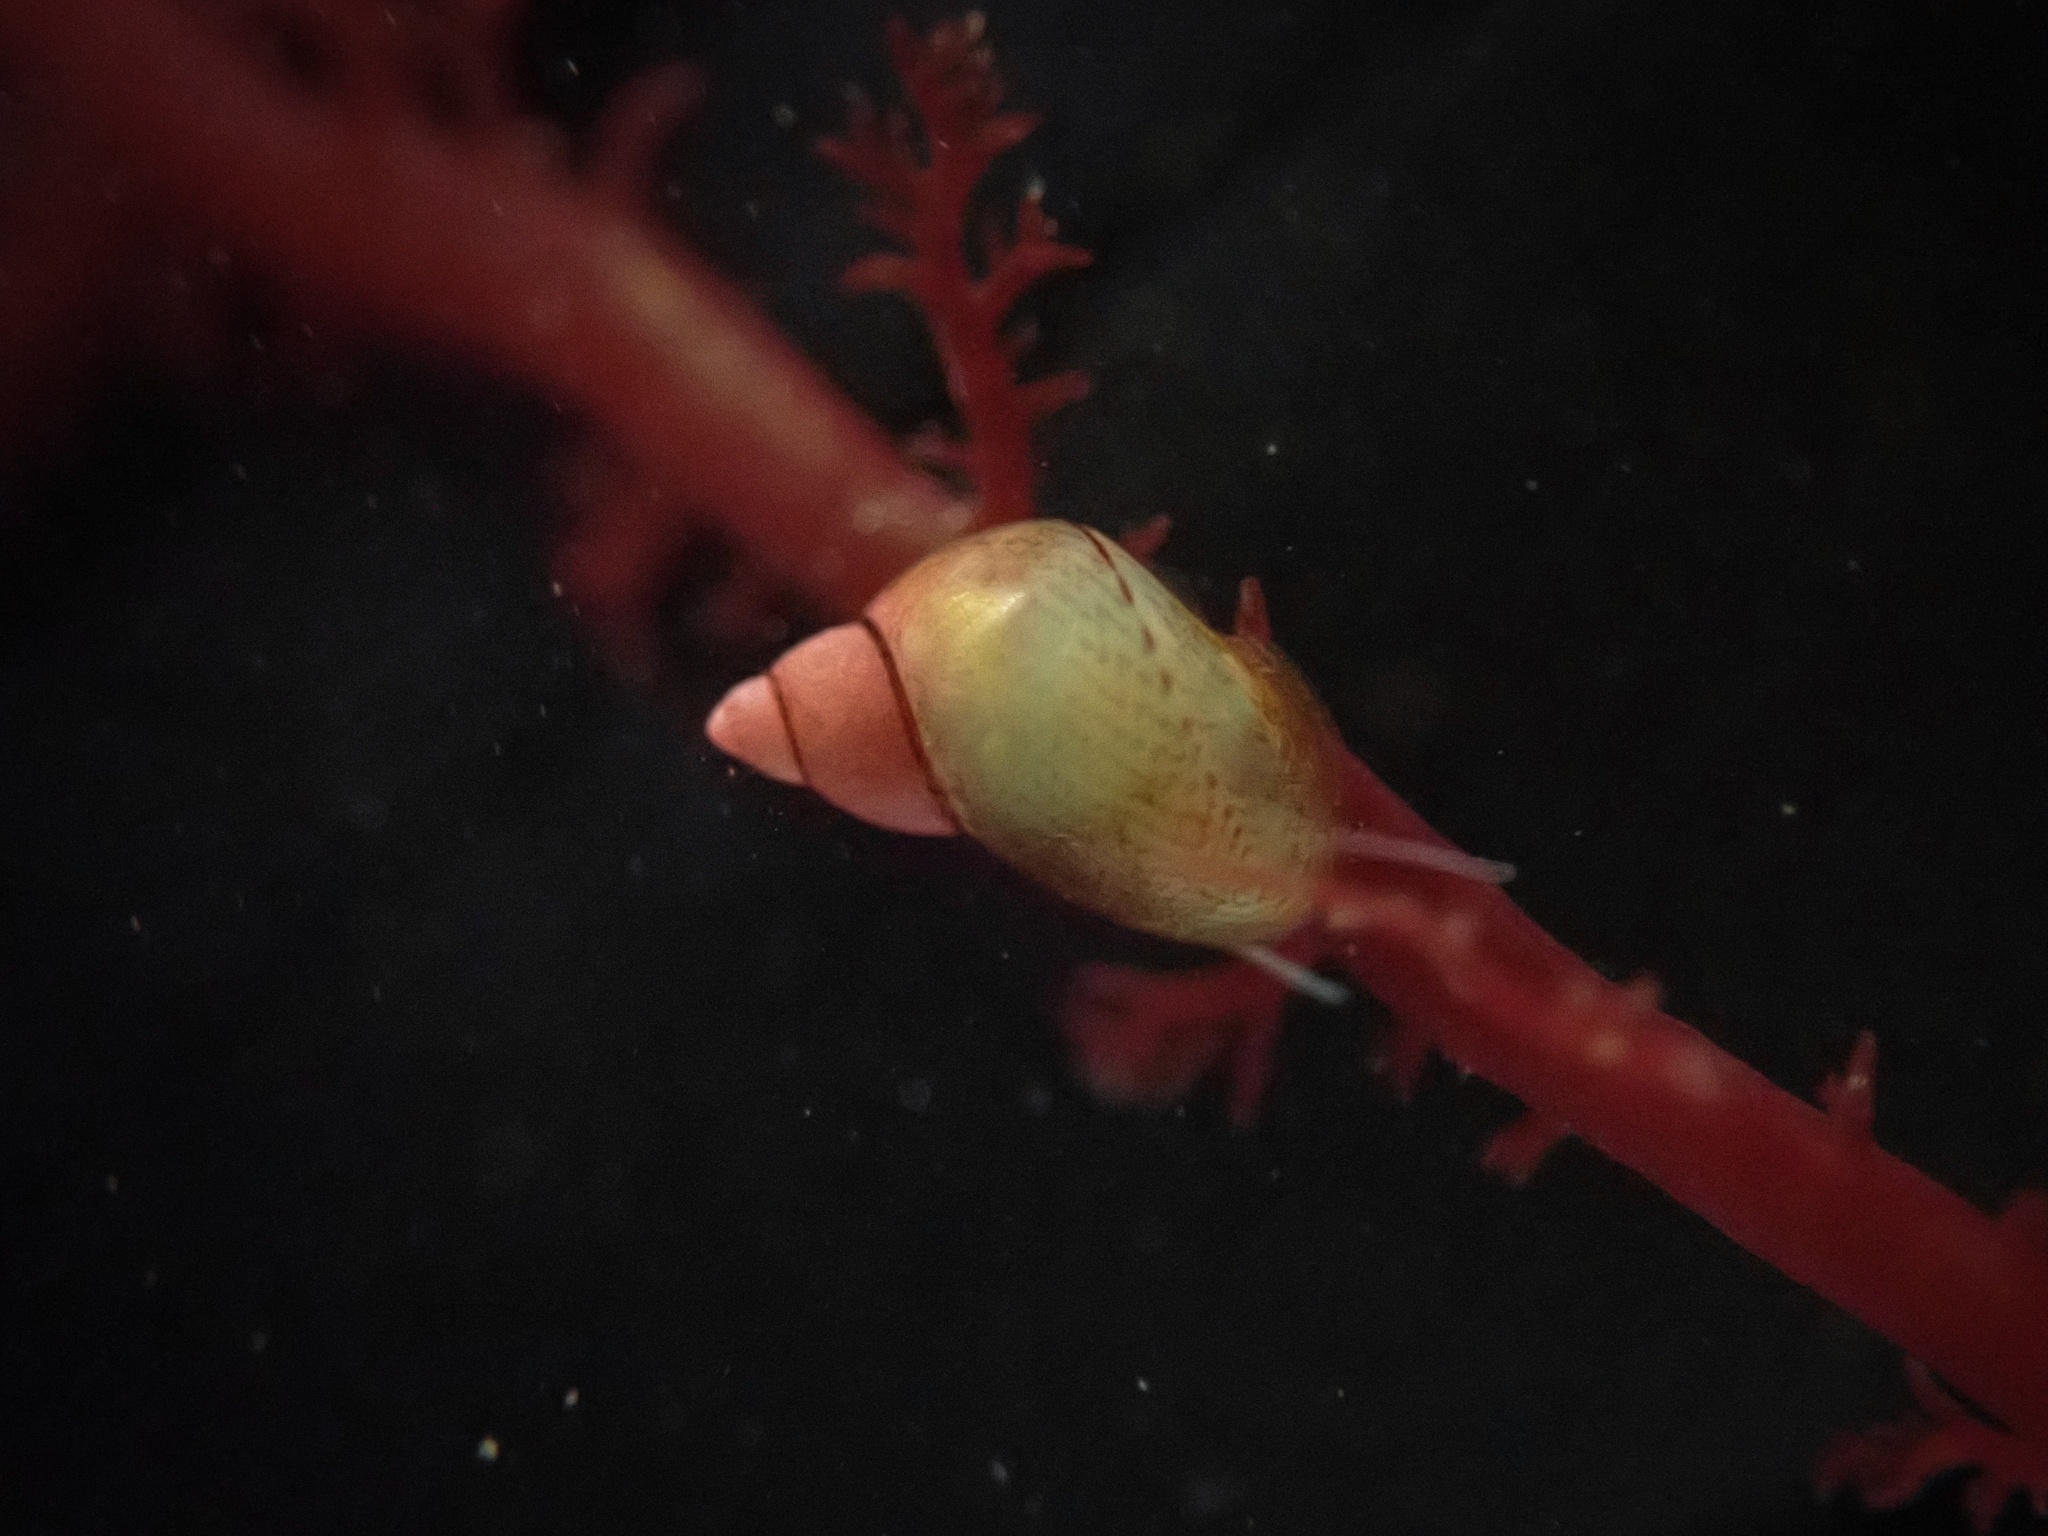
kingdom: Animalia
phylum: Mollusca
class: Gastropoda
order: Littorinimorpha
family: Littorinidae
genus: Lacuna
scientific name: Lacuna unifasciata
